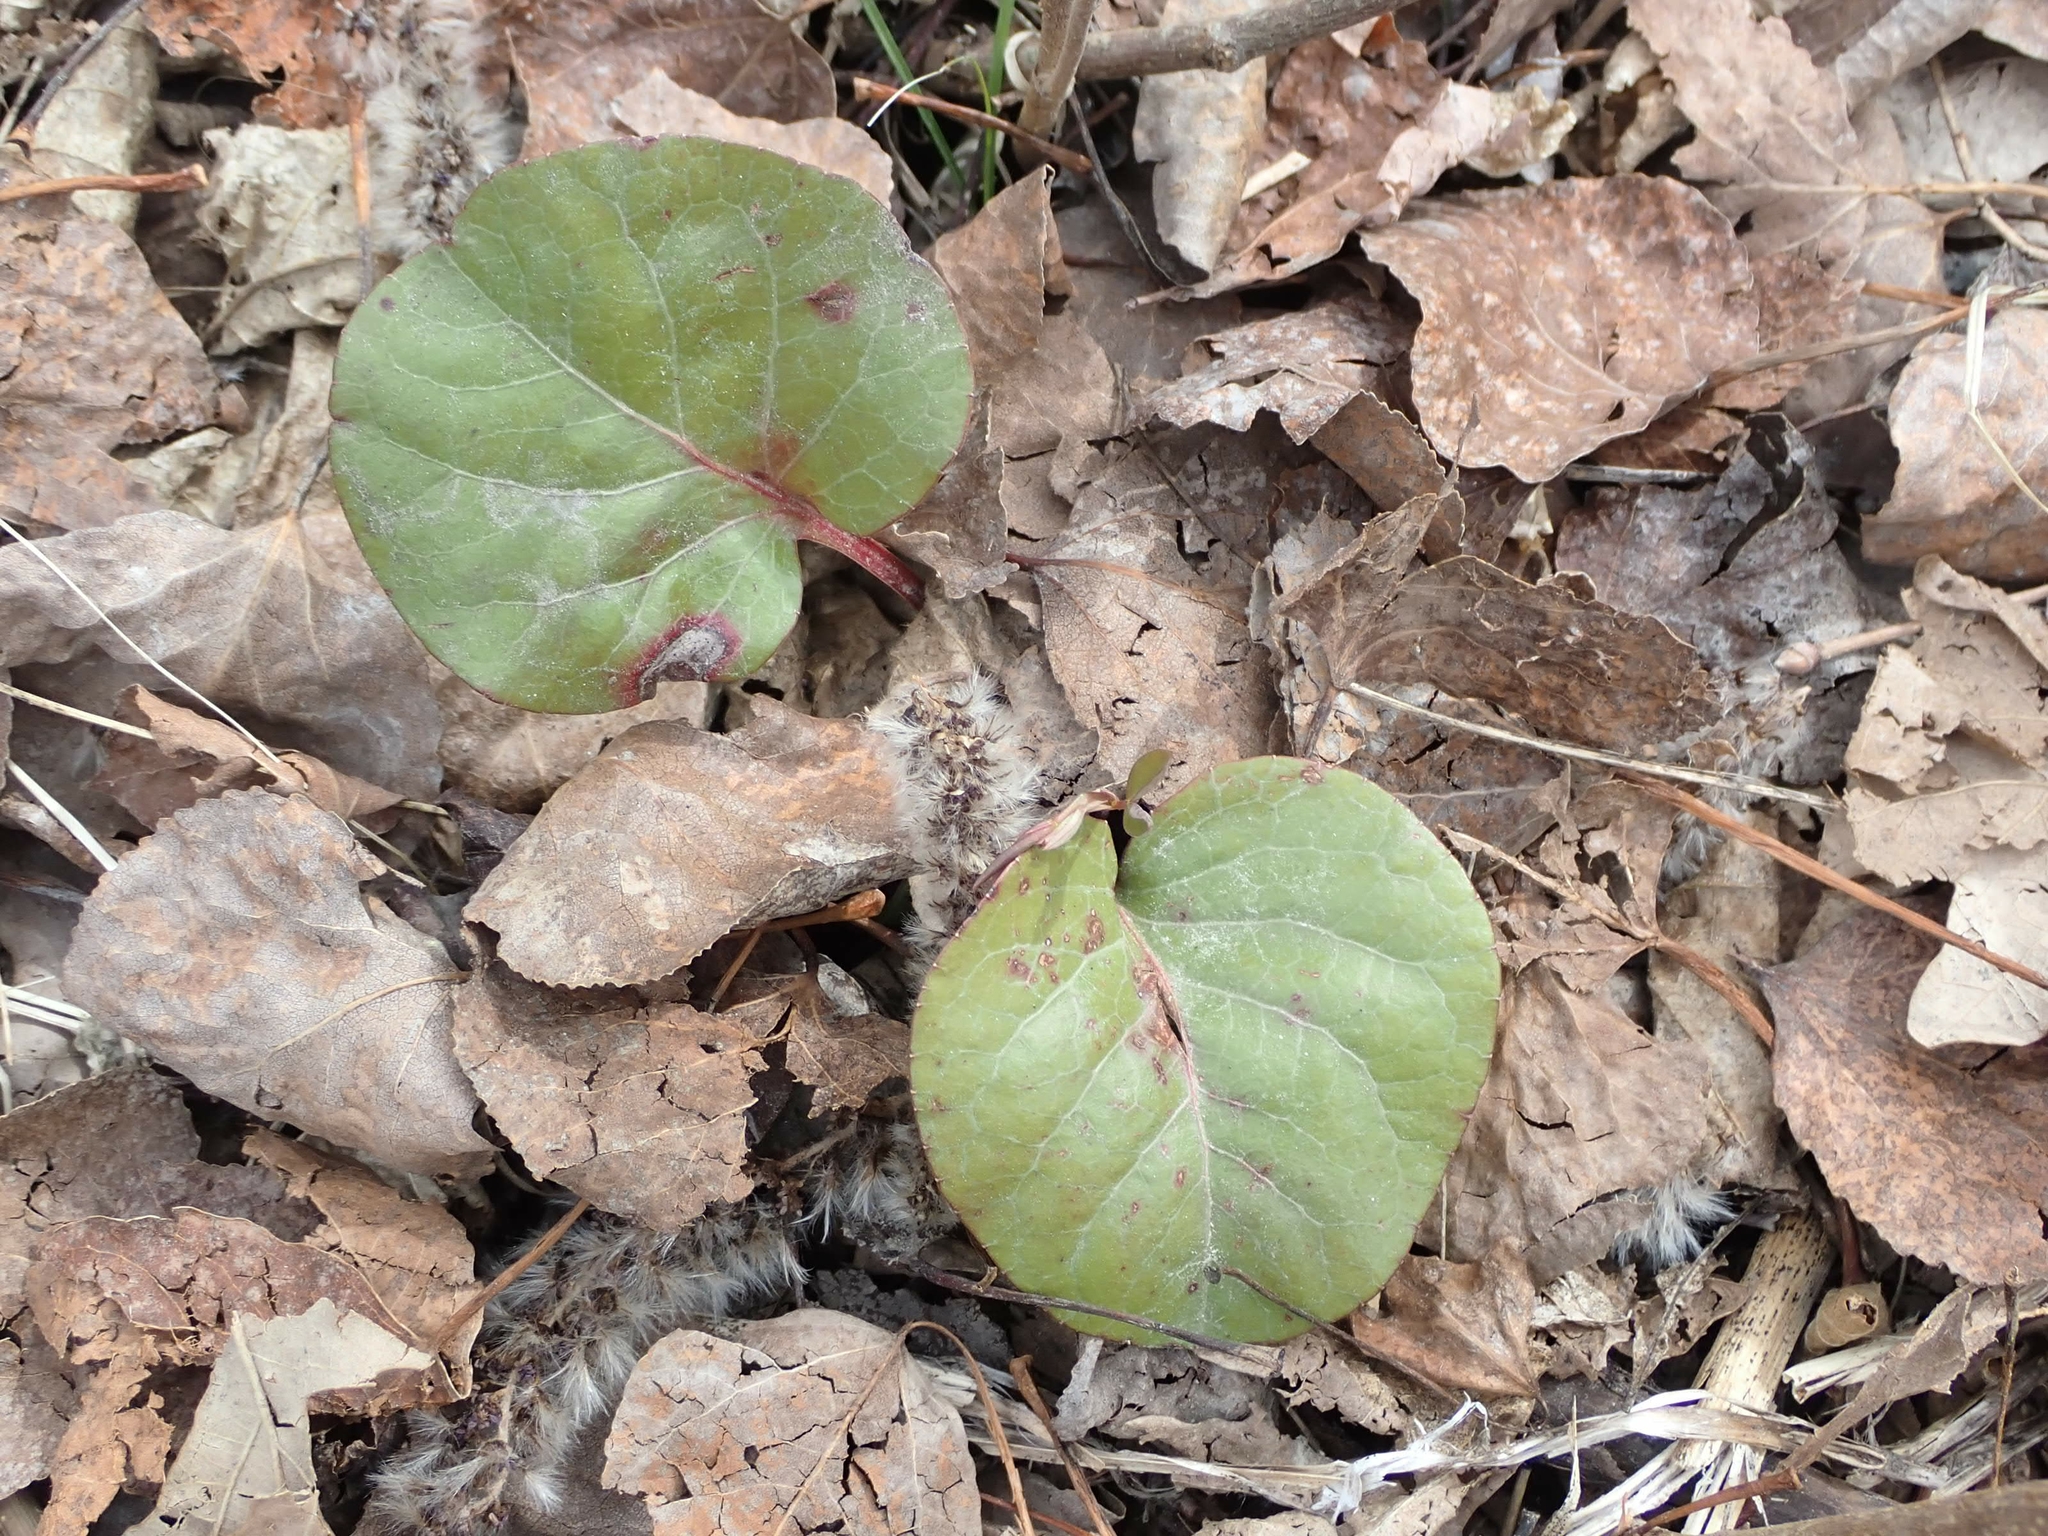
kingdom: Plantae
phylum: Tracheophyta
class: Magnoliopsida
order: Ericales
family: Ericaceae
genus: Pyrola
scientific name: Pyrola asarifolia
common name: Bog wintergreen
